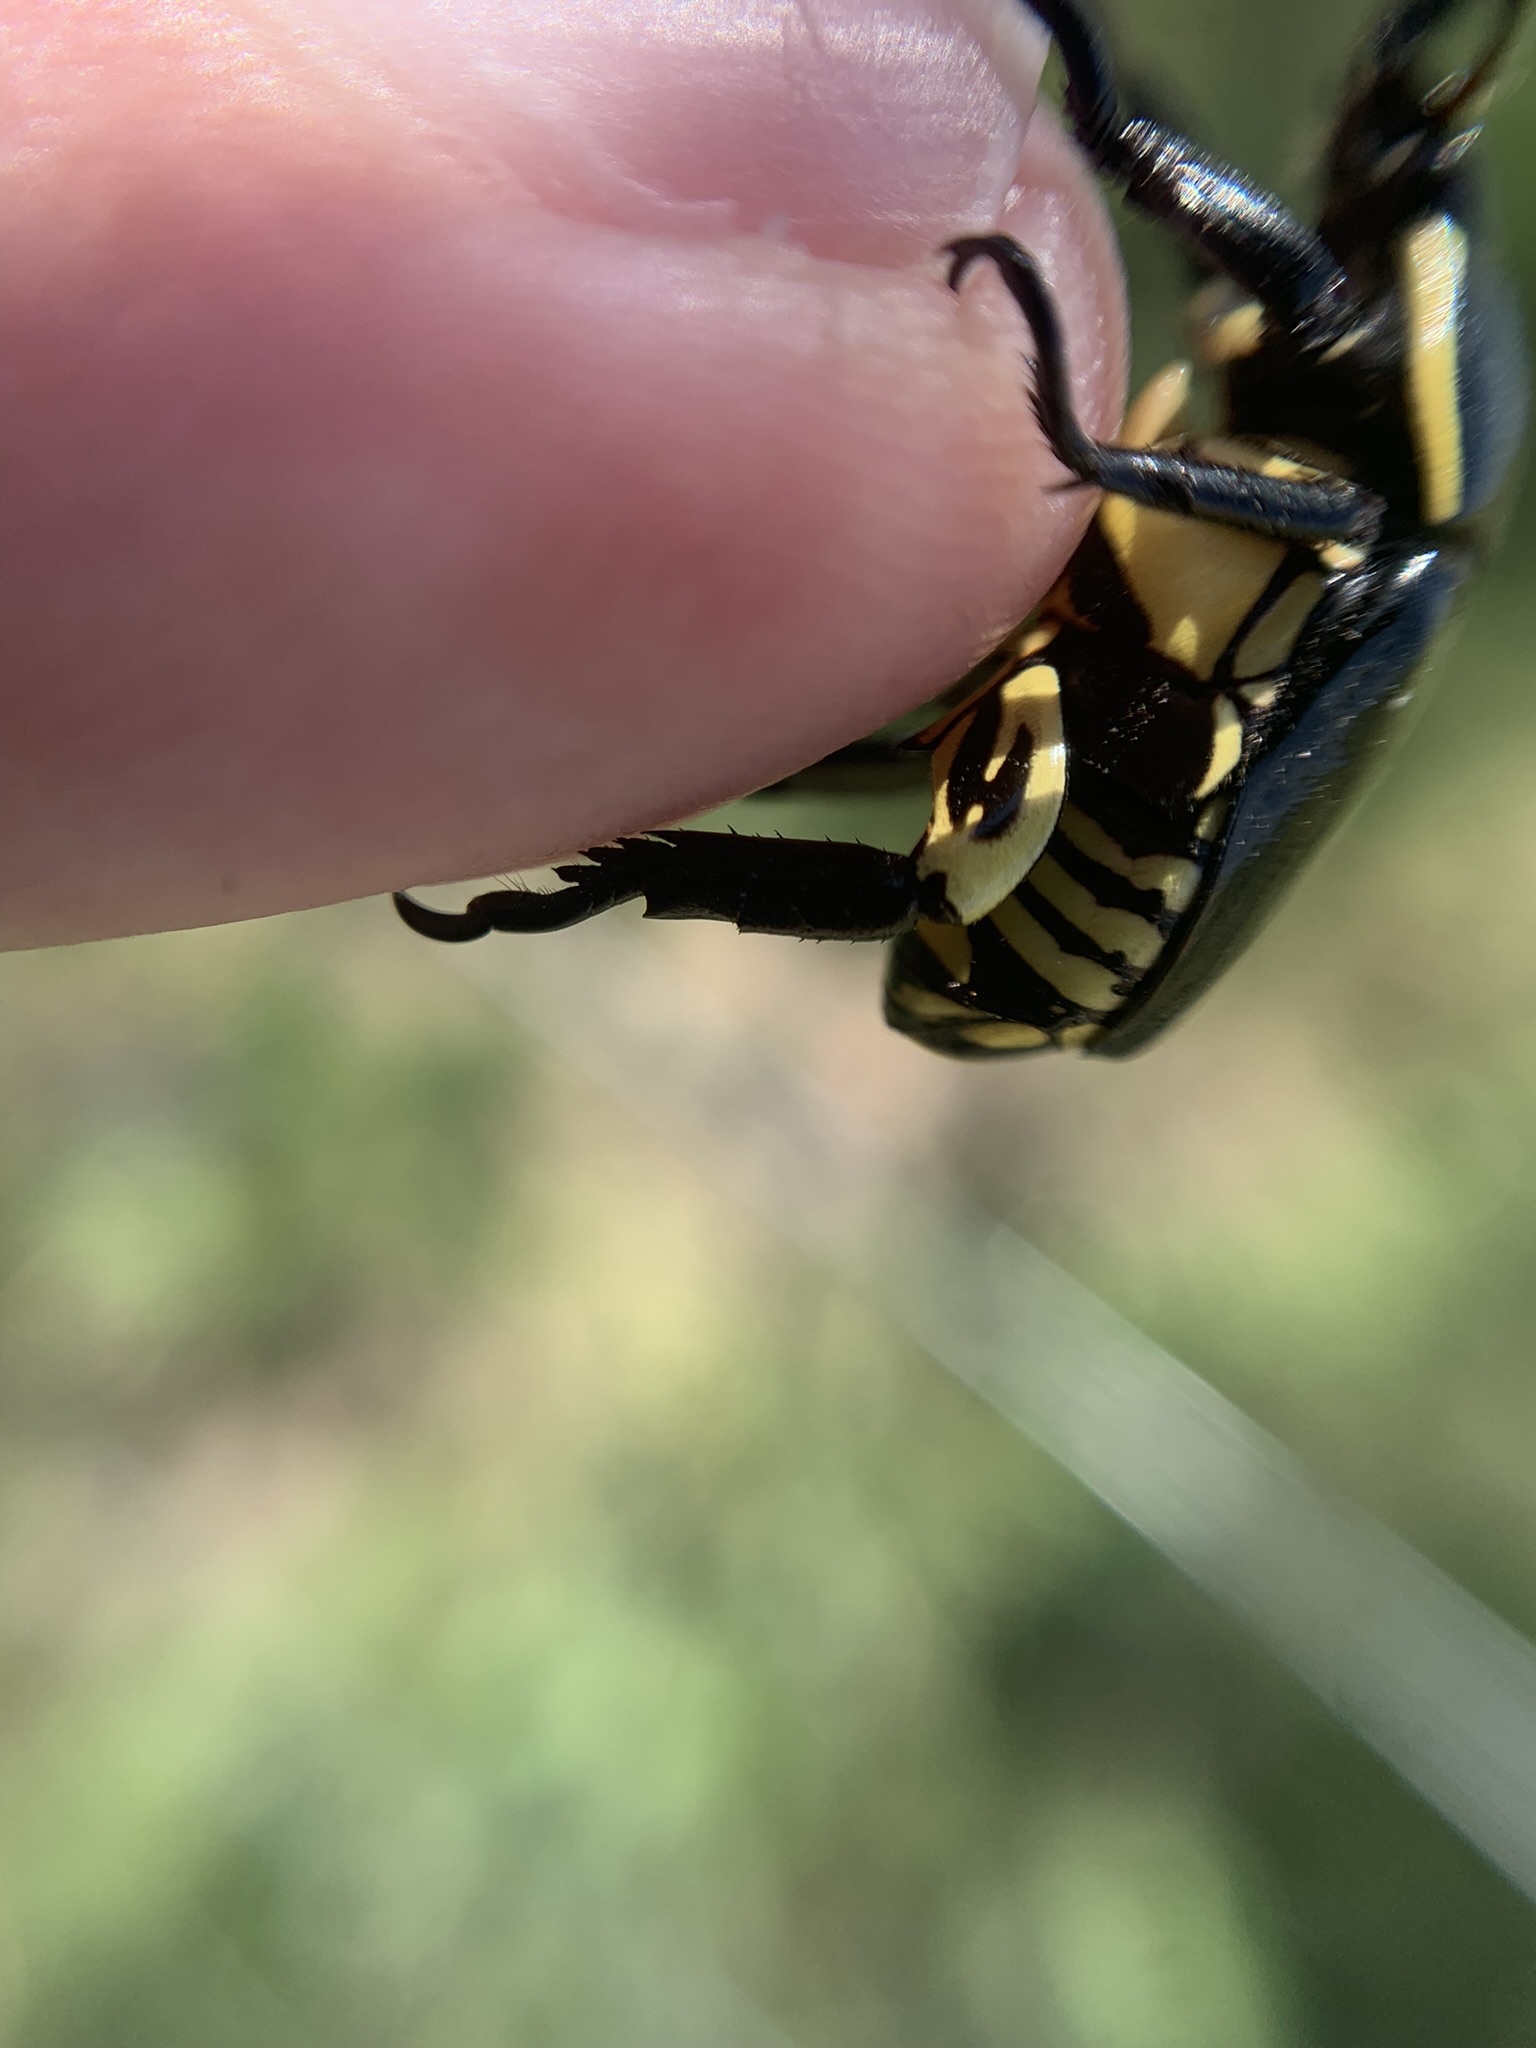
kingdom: Animalia
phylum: Arthropoda
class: Insecta
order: Coleoptera
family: Scarabaeidae
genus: Rutela
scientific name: Rutela lineola
